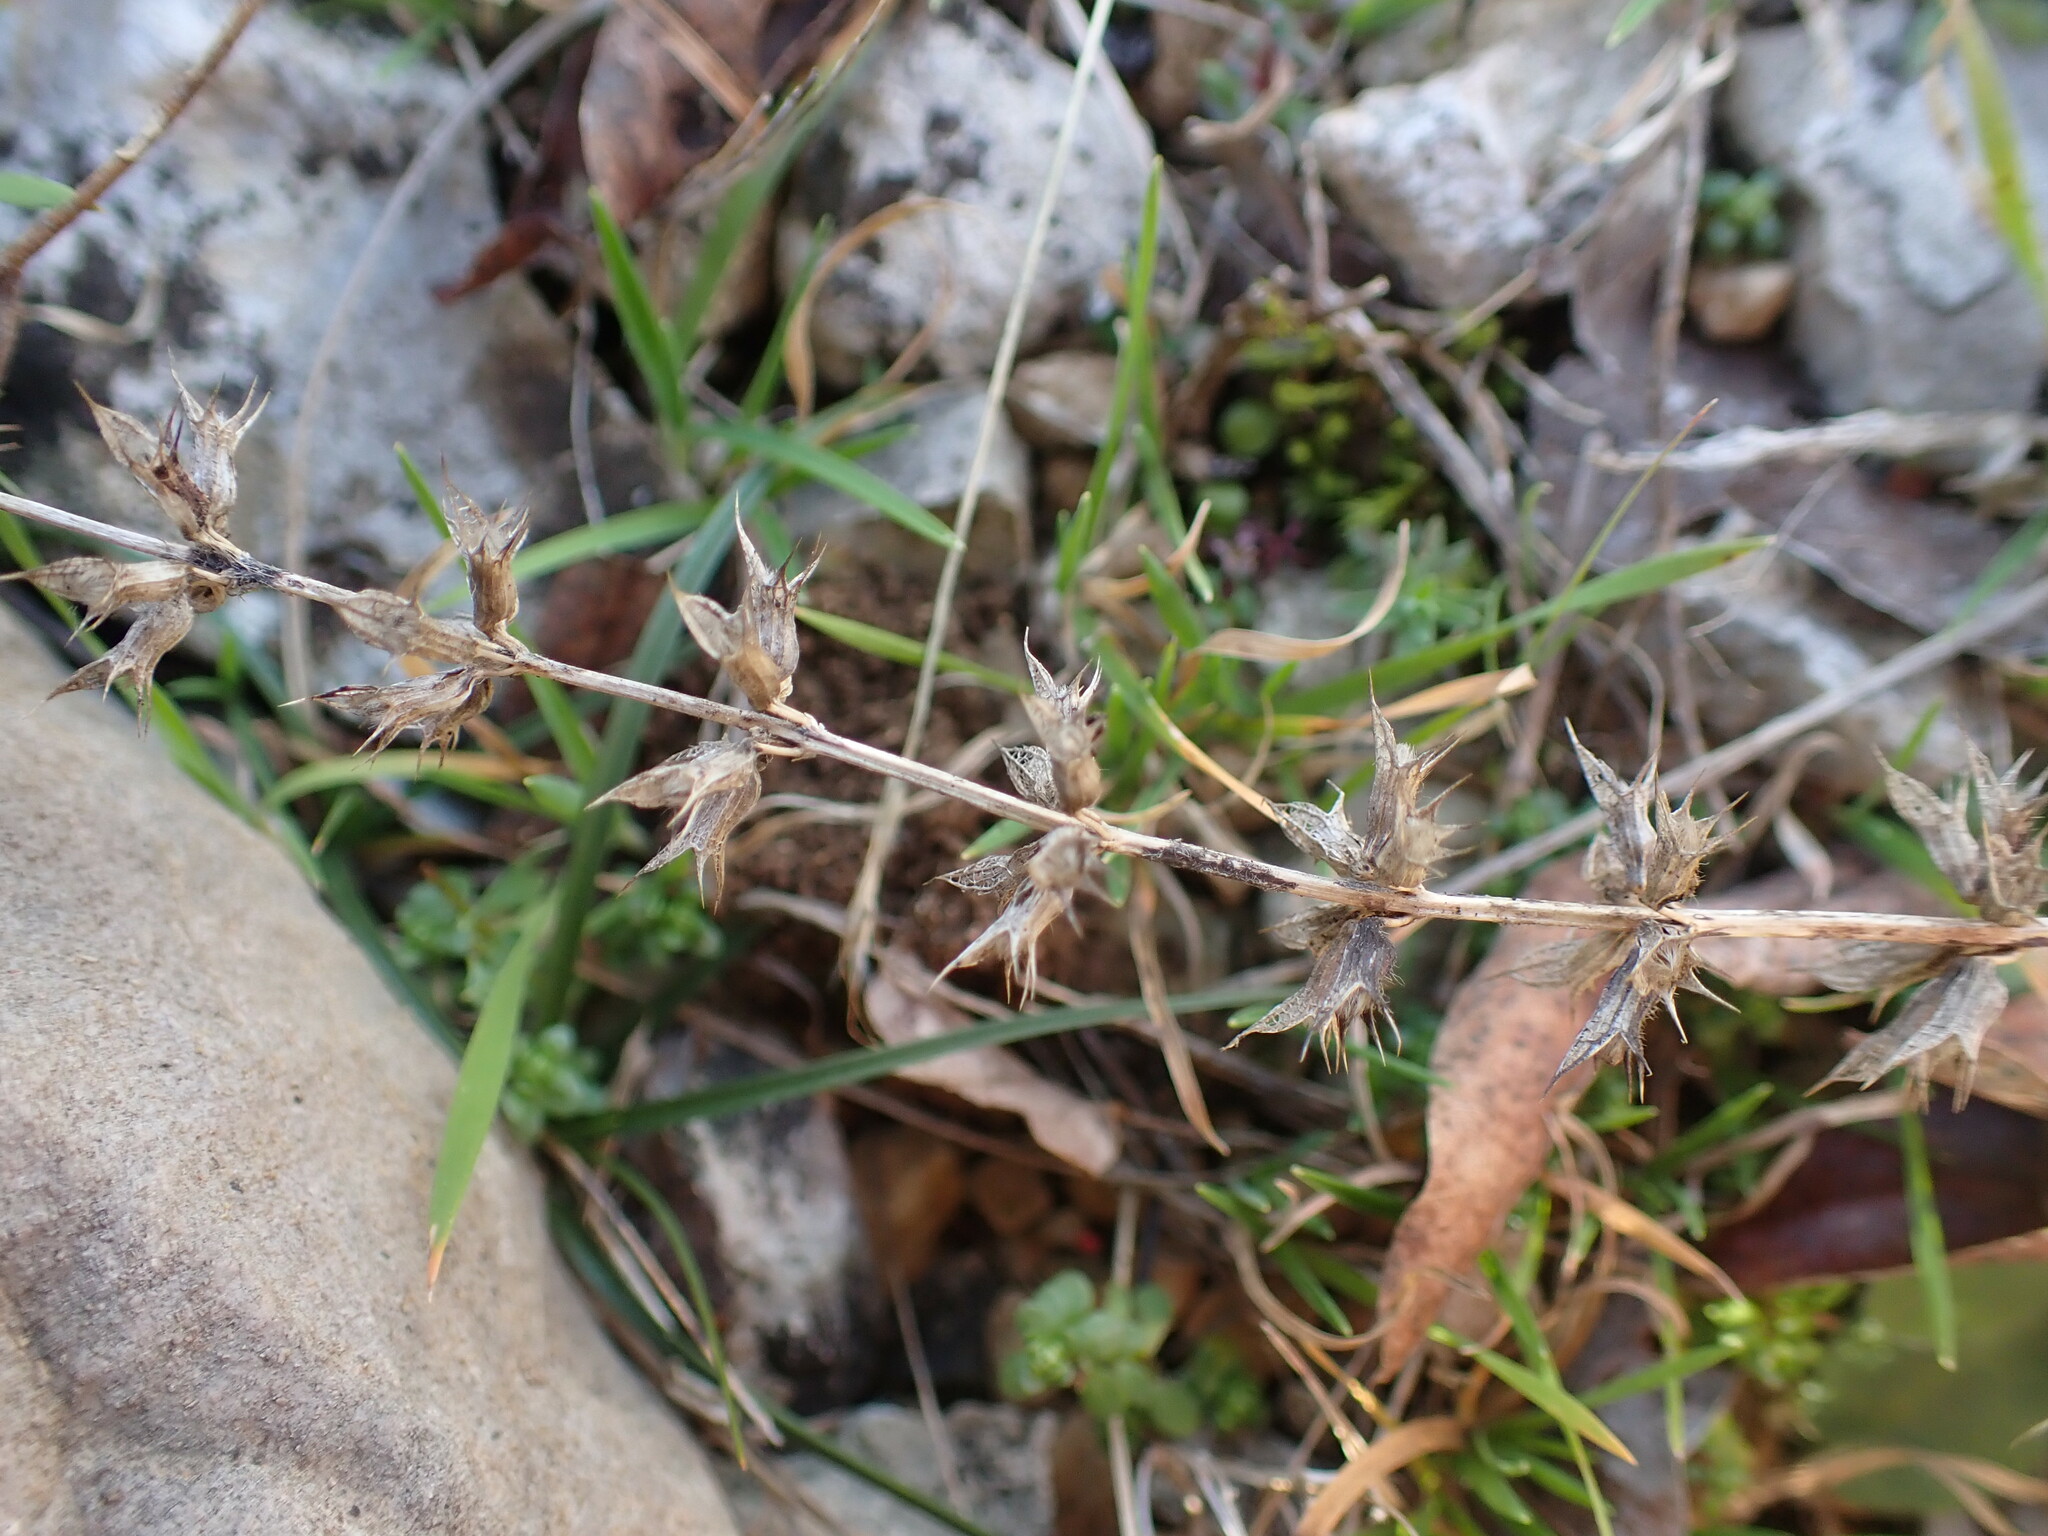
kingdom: Plantae
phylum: Tracheophyta
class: Magnoliopsida
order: Lamiales
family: Lamiaceae
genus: Sideritis
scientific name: Sideritis romana
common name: Simplebeak ironwort
